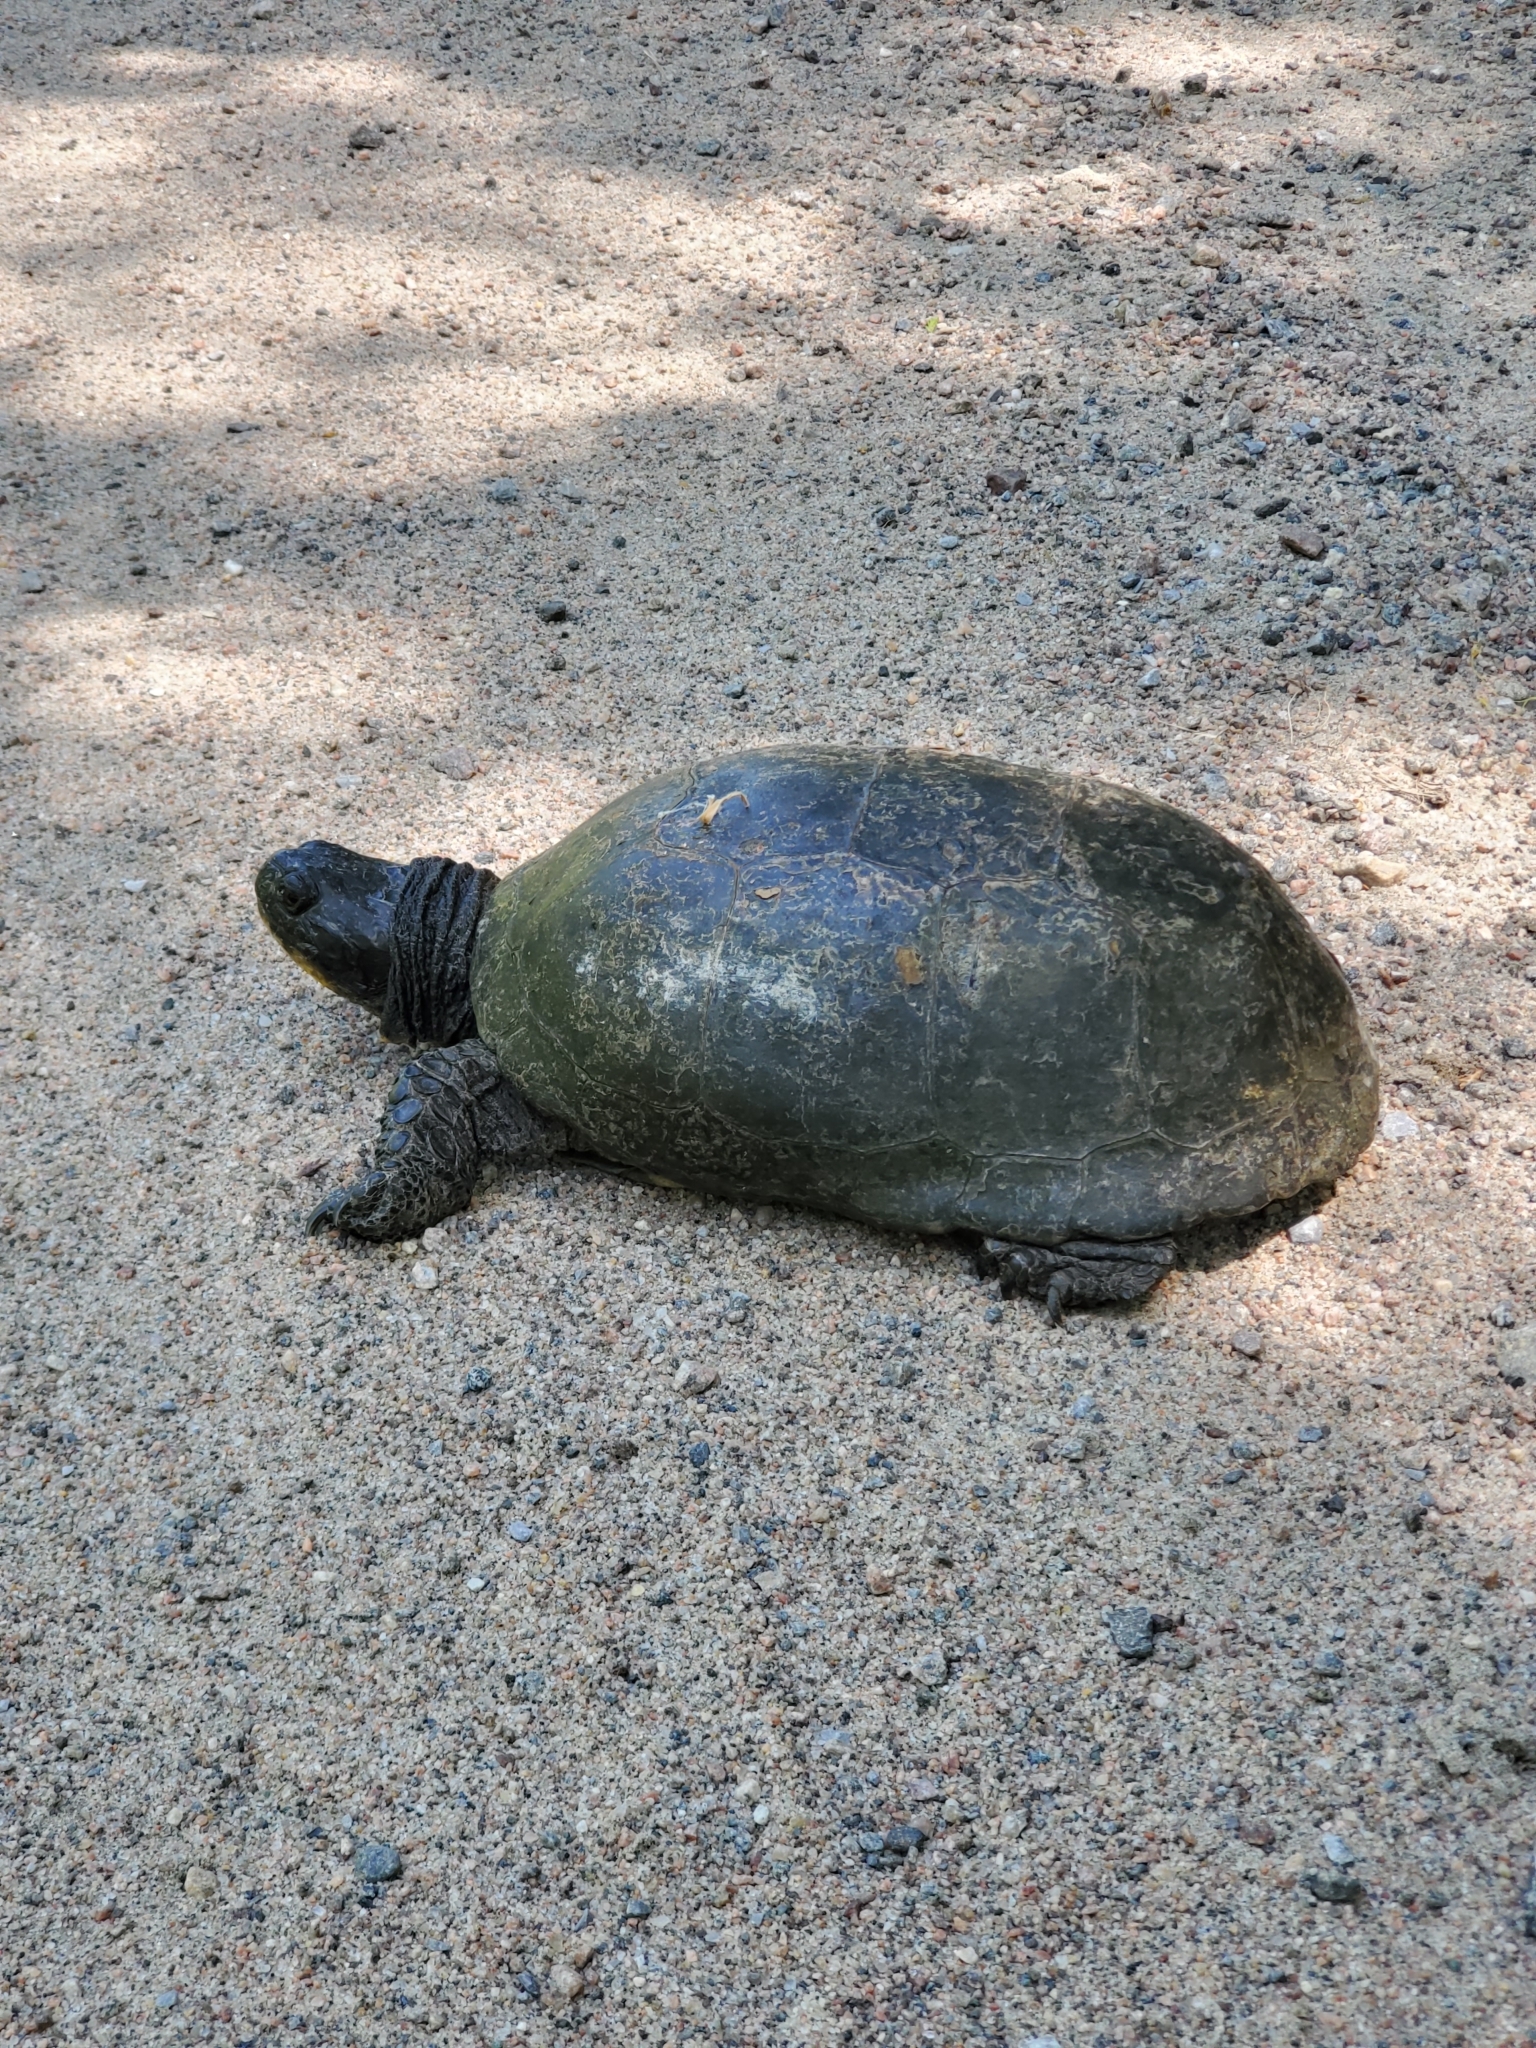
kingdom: Animalia
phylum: Chordata
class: Testudines
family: Emydidae
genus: Emys
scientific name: Emys blandingii
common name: Blanding's turtle
